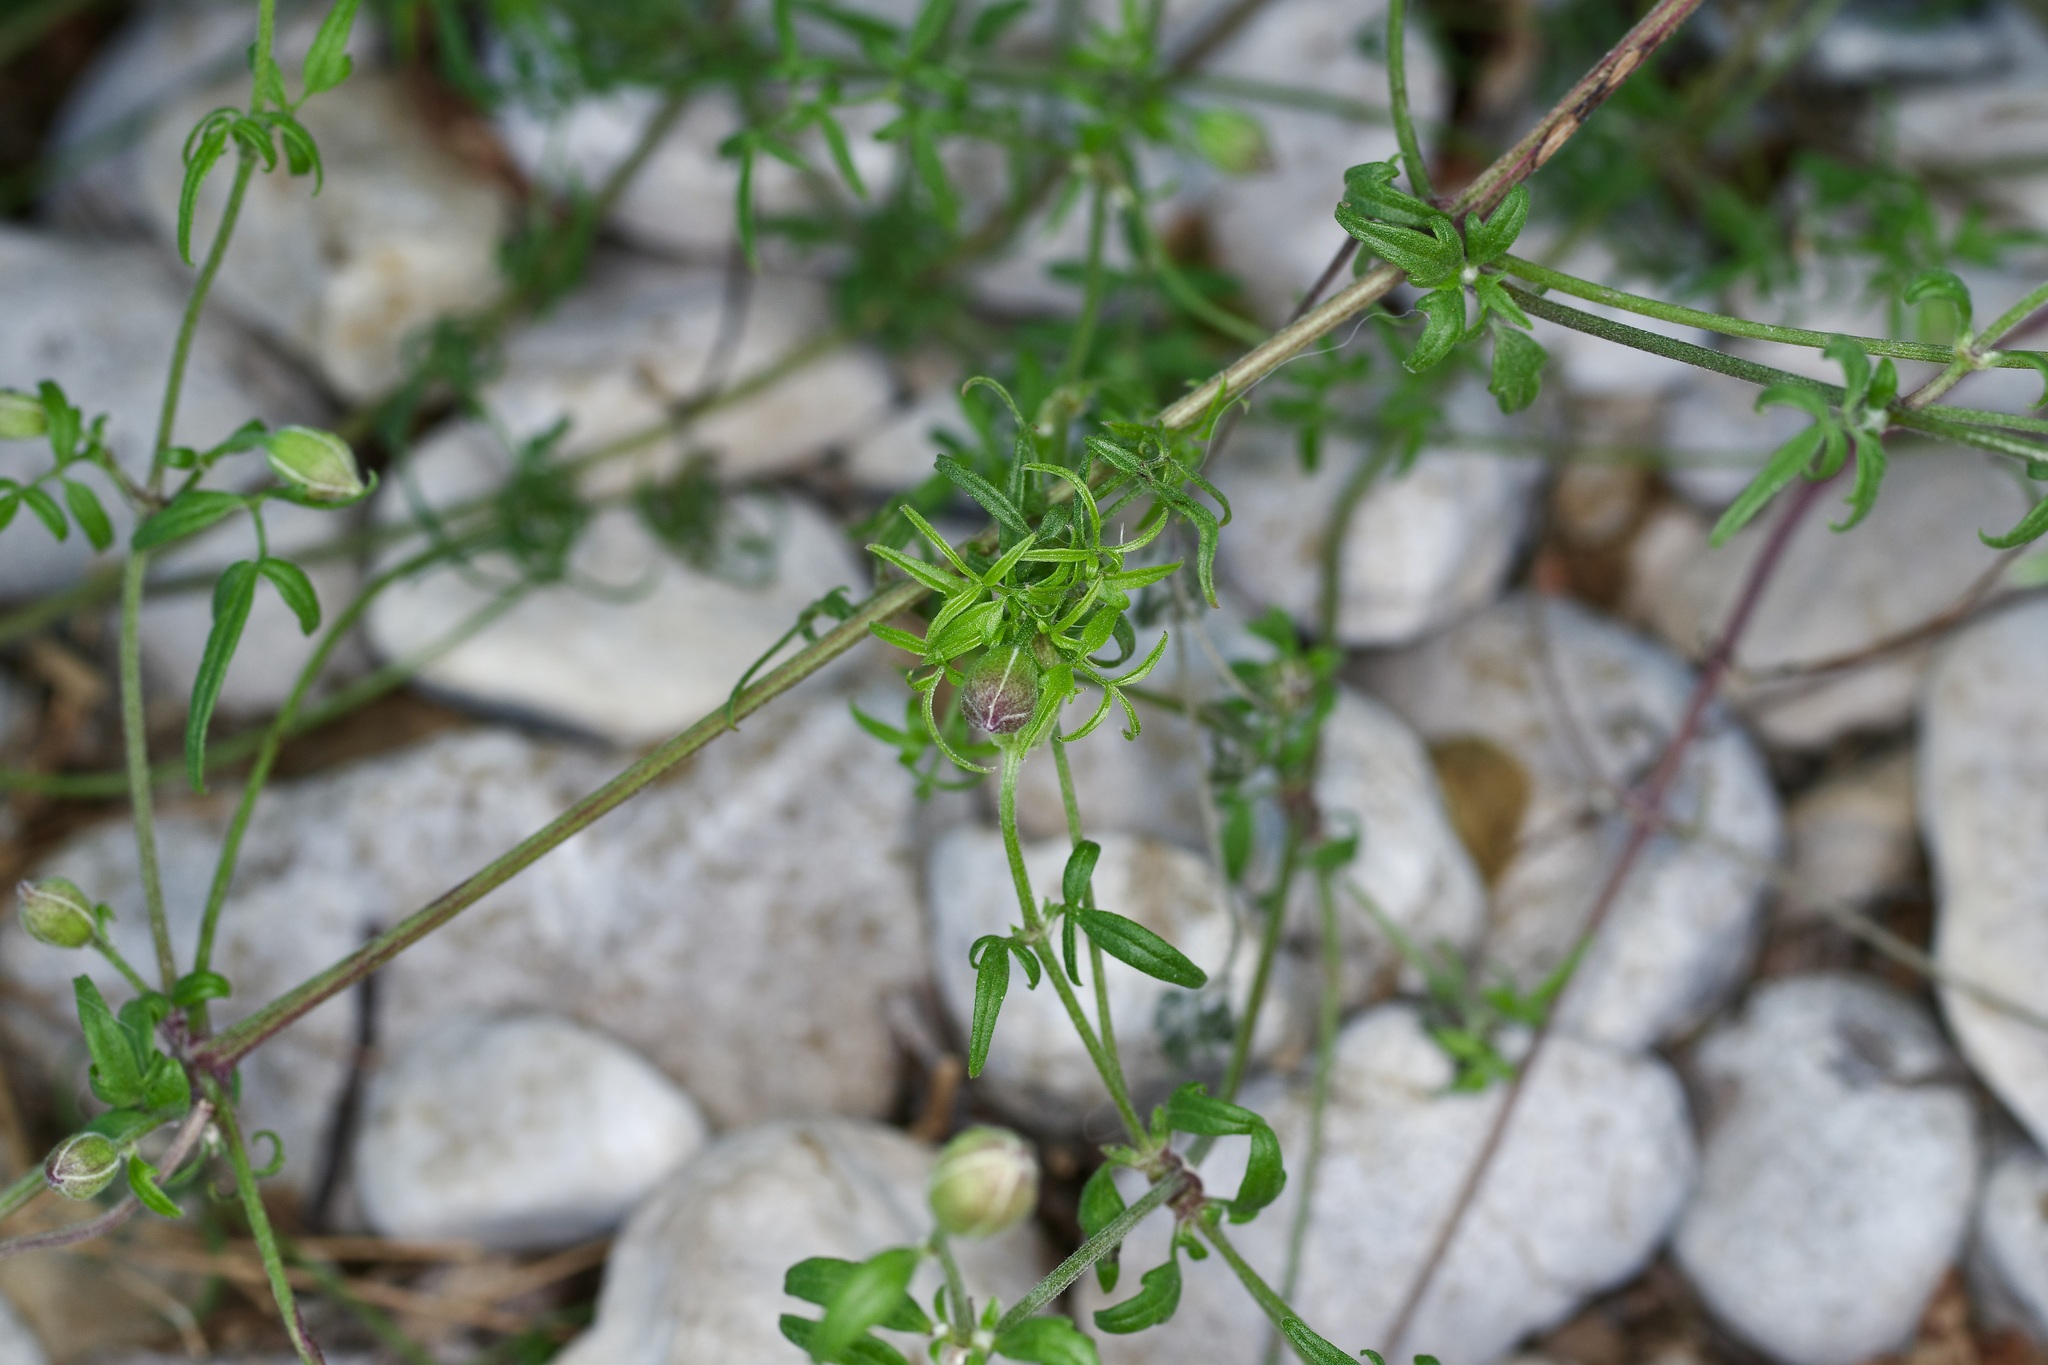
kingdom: Plantae
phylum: Tracheophyta
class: Magnoliopsida
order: Ranunculales
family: Ranunculaceae
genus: Clematis
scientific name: Clematis drummondii
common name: Texas virgin's bower
